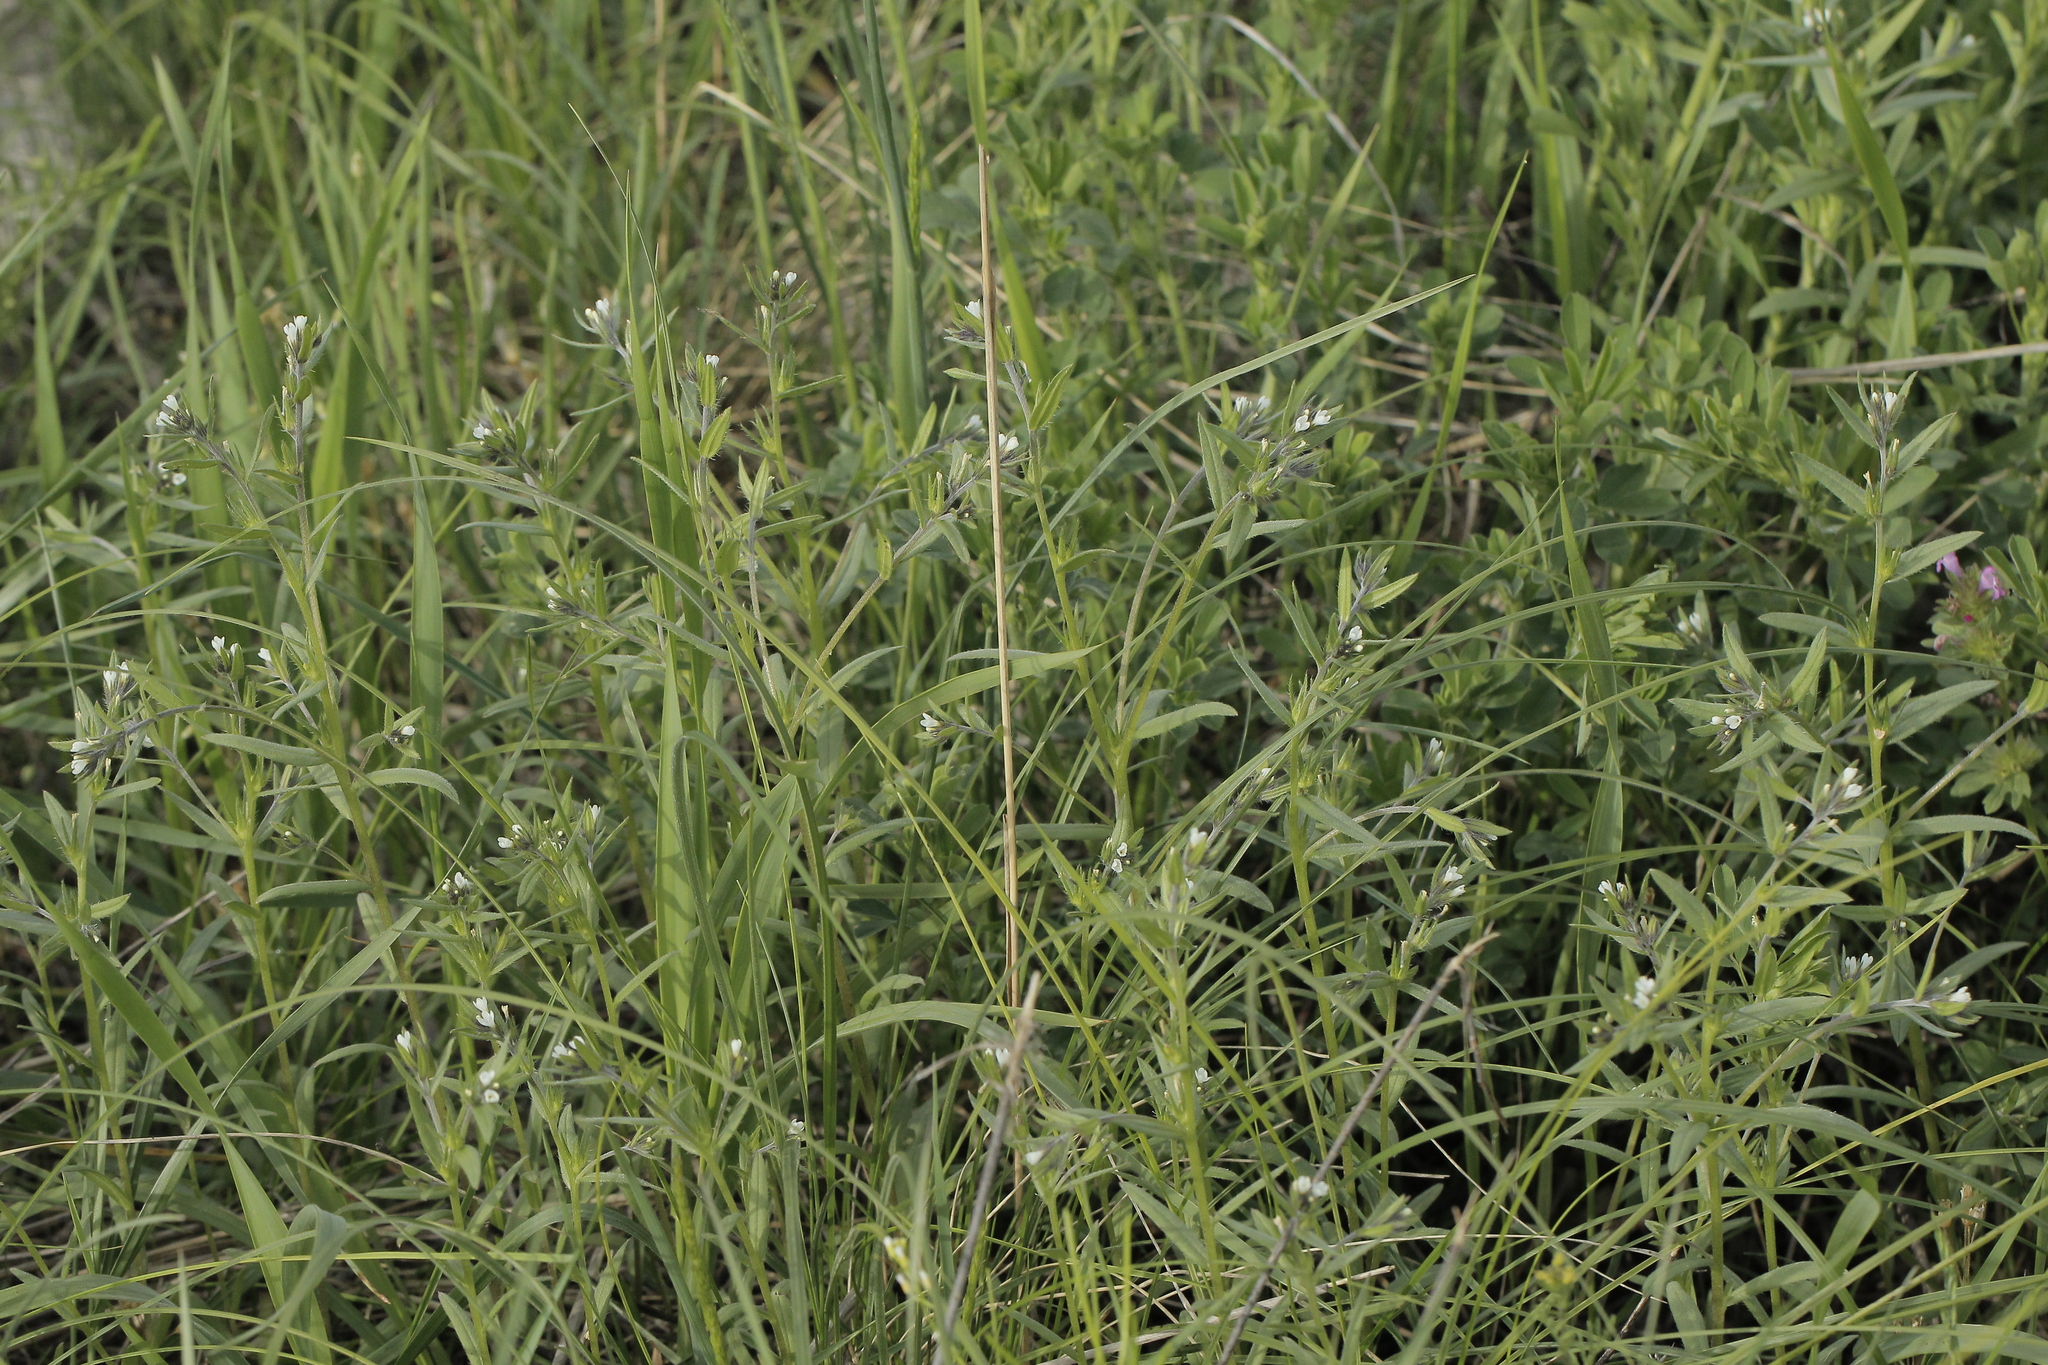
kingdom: Plantae
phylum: Tracheophyta
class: Magnoliopsida
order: Boraginales
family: Boraginaceae
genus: Buglossoides
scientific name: Buglossoides arvensis
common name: Corn gromwell
